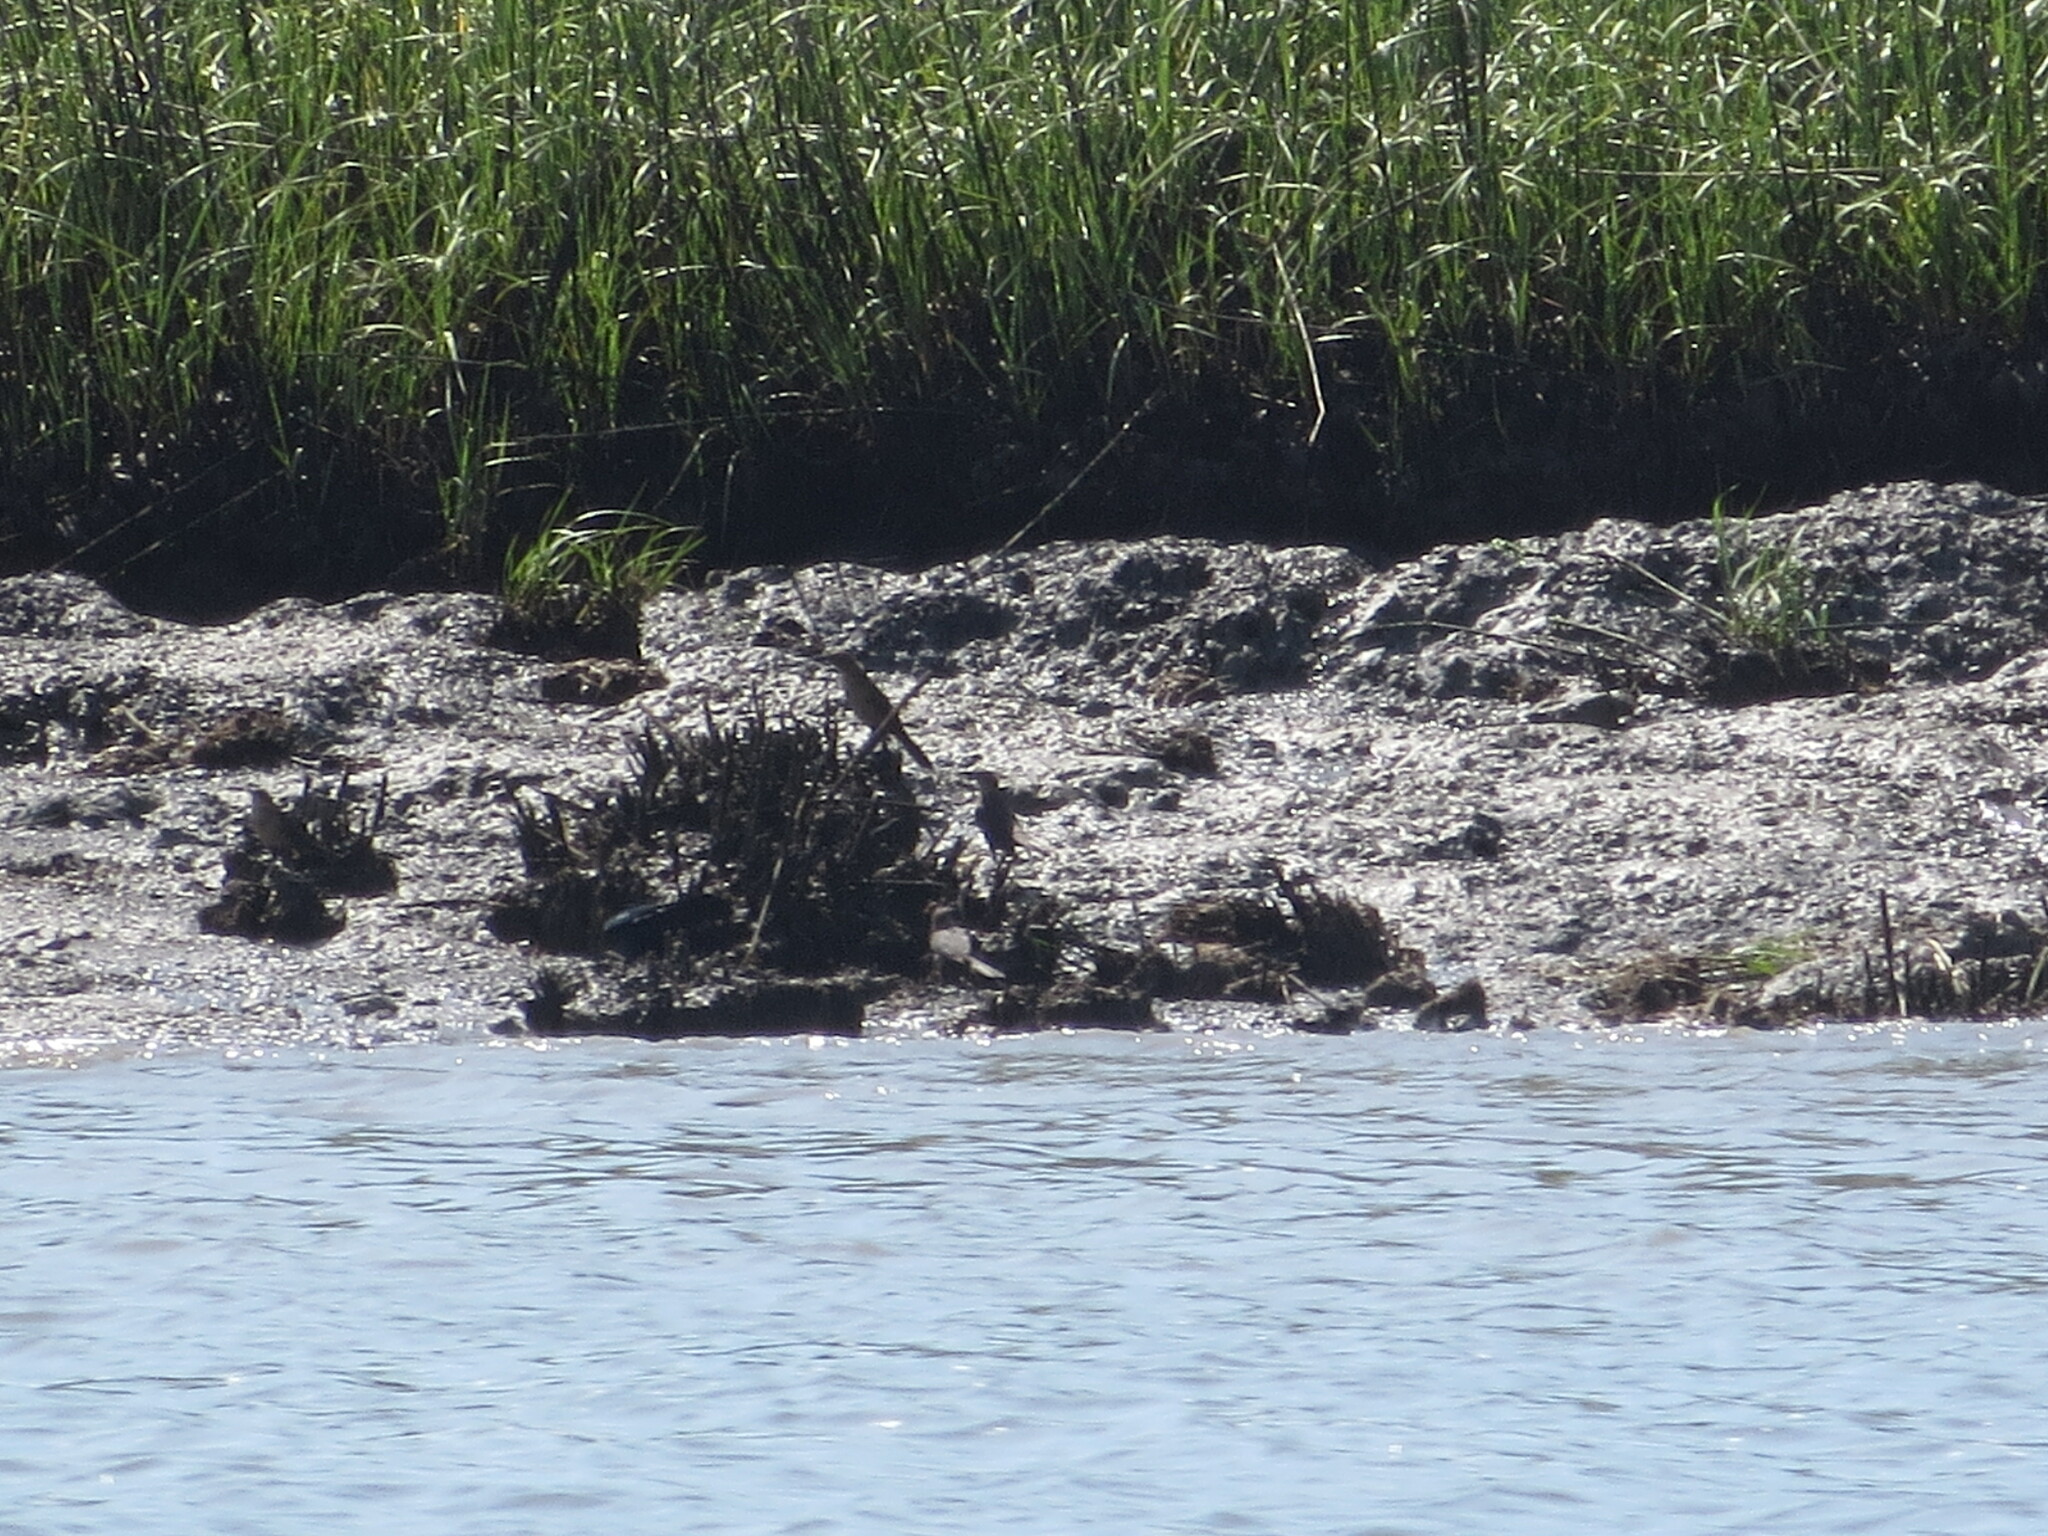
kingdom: Animalia
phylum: Chordata
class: Aves
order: Passeriformes
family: Icteridae
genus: Quiscalus
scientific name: Quiscalus major
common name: Boat-tailed grackle
